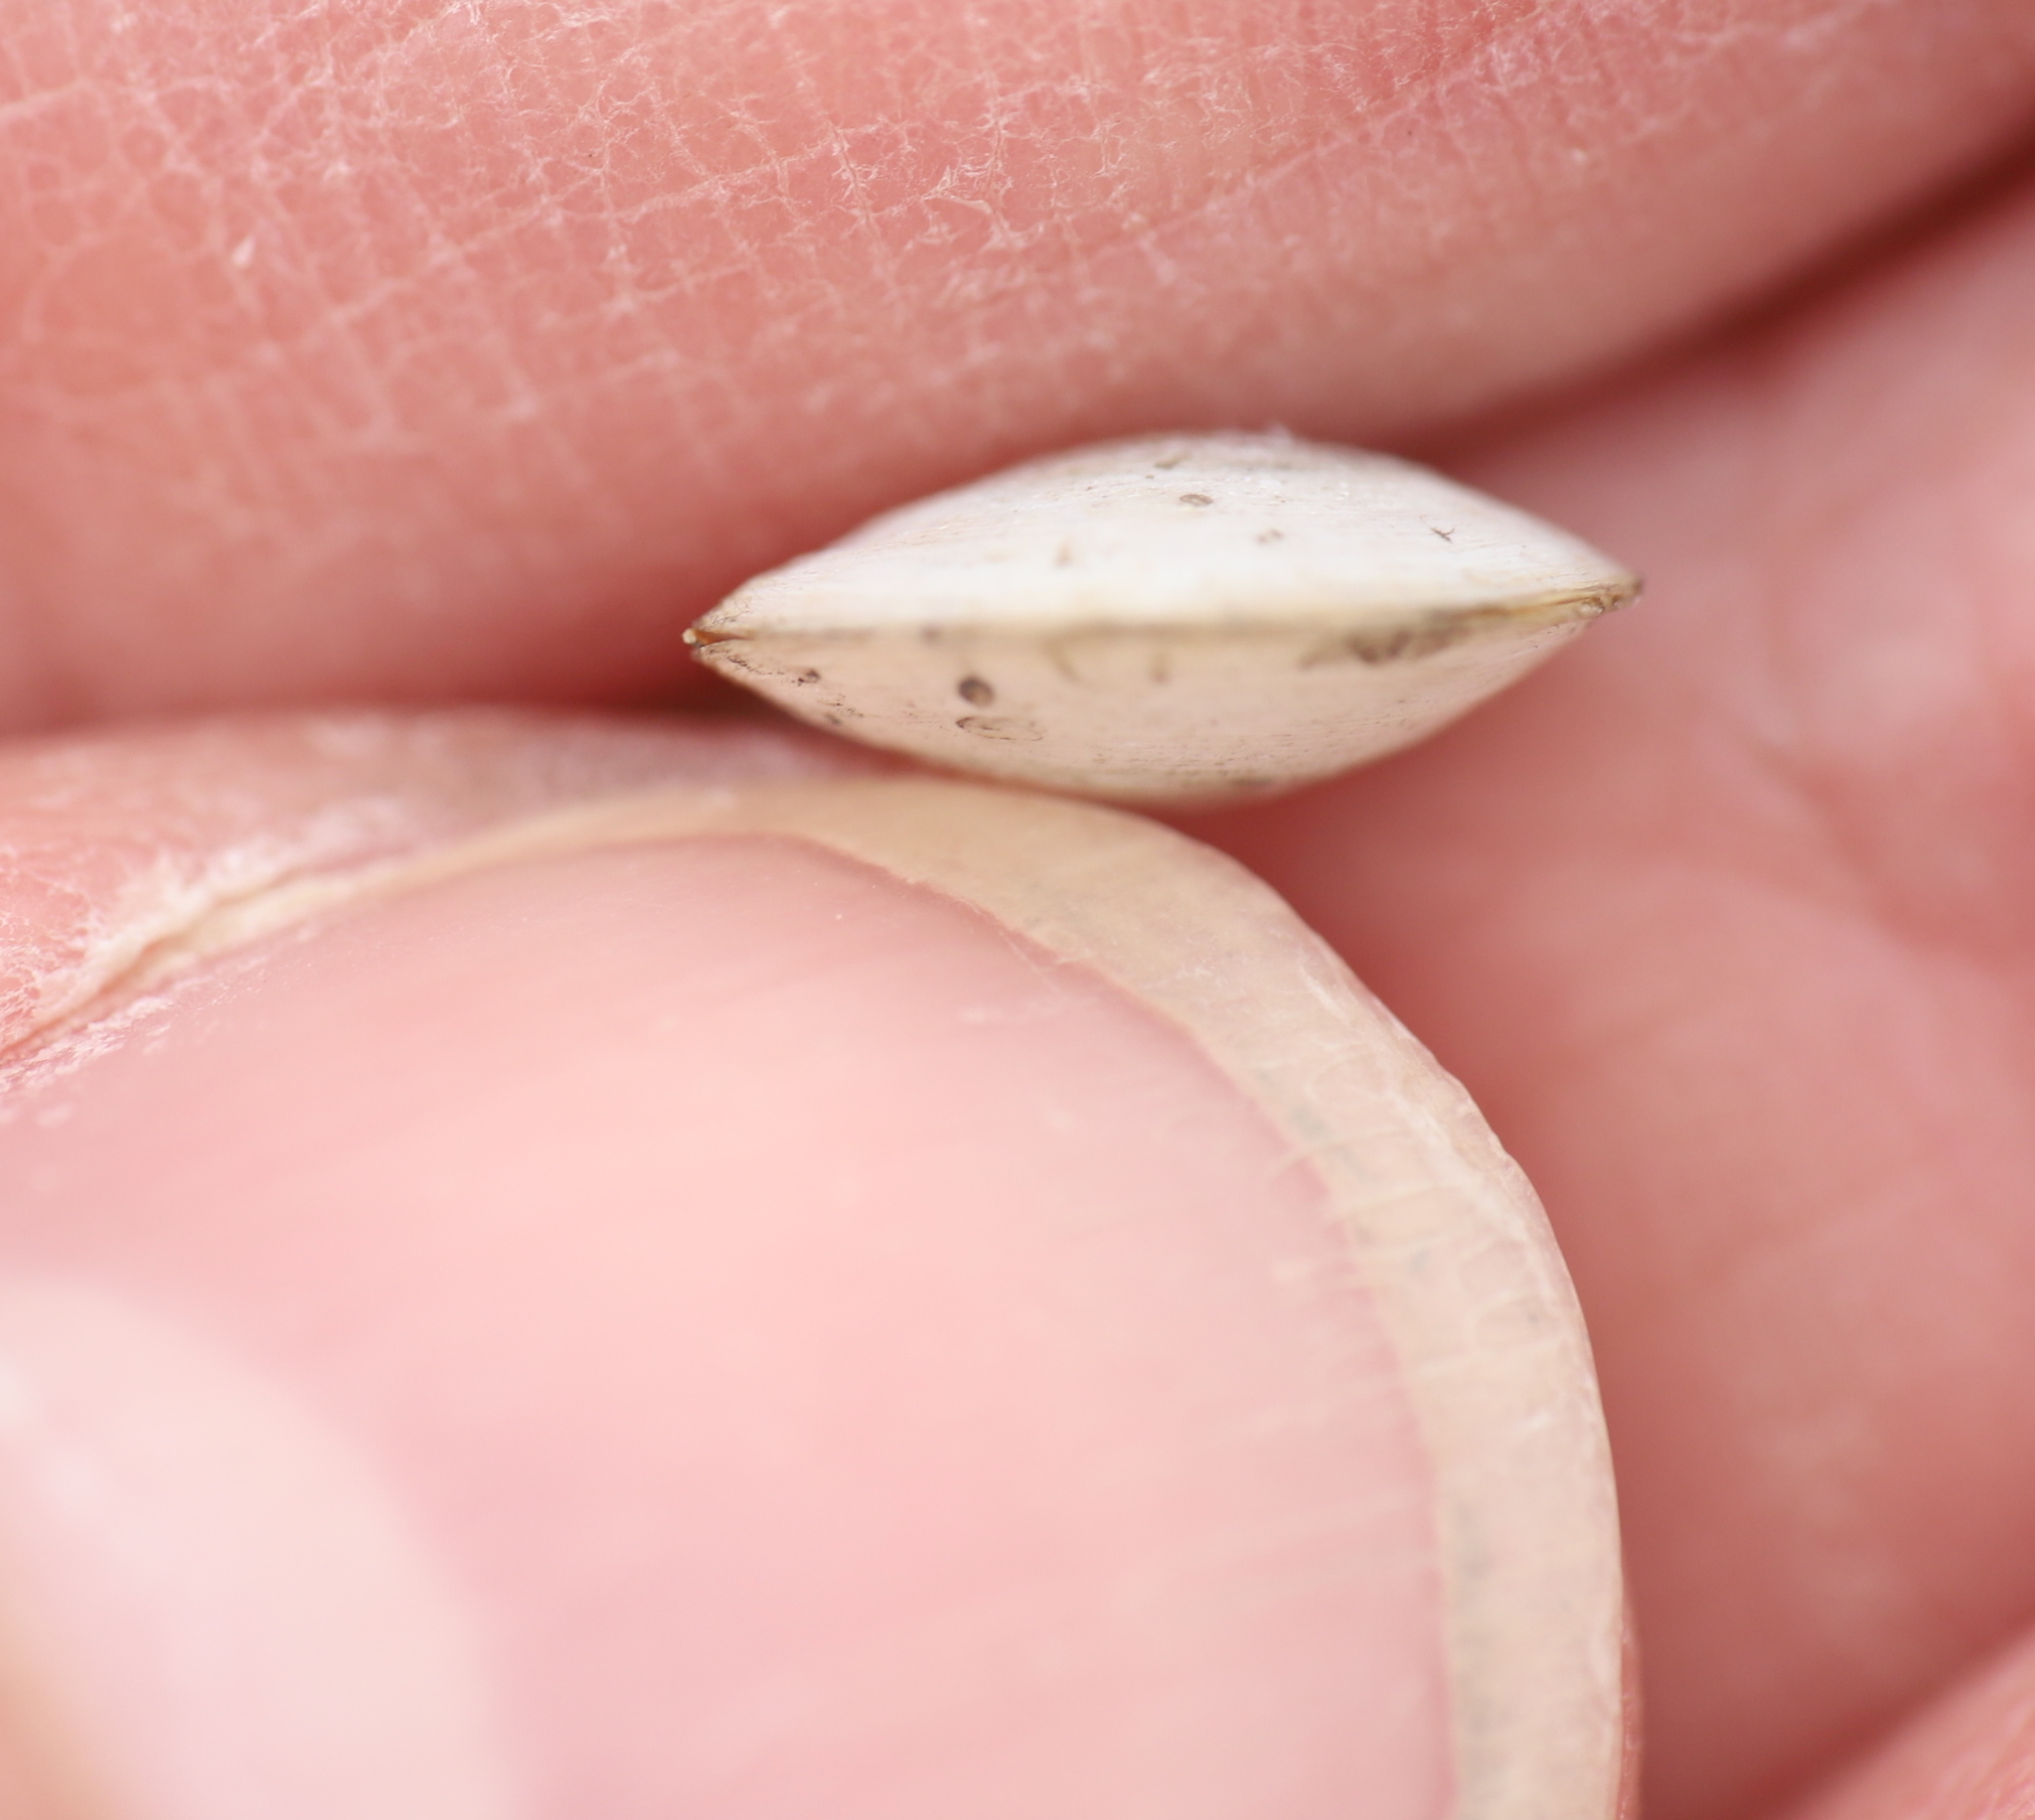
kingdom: Animalia
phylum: Mollusca
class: Bivalvia
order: Cardiida
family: Tellinidae
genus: Macoma
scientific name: Macoma petalum
